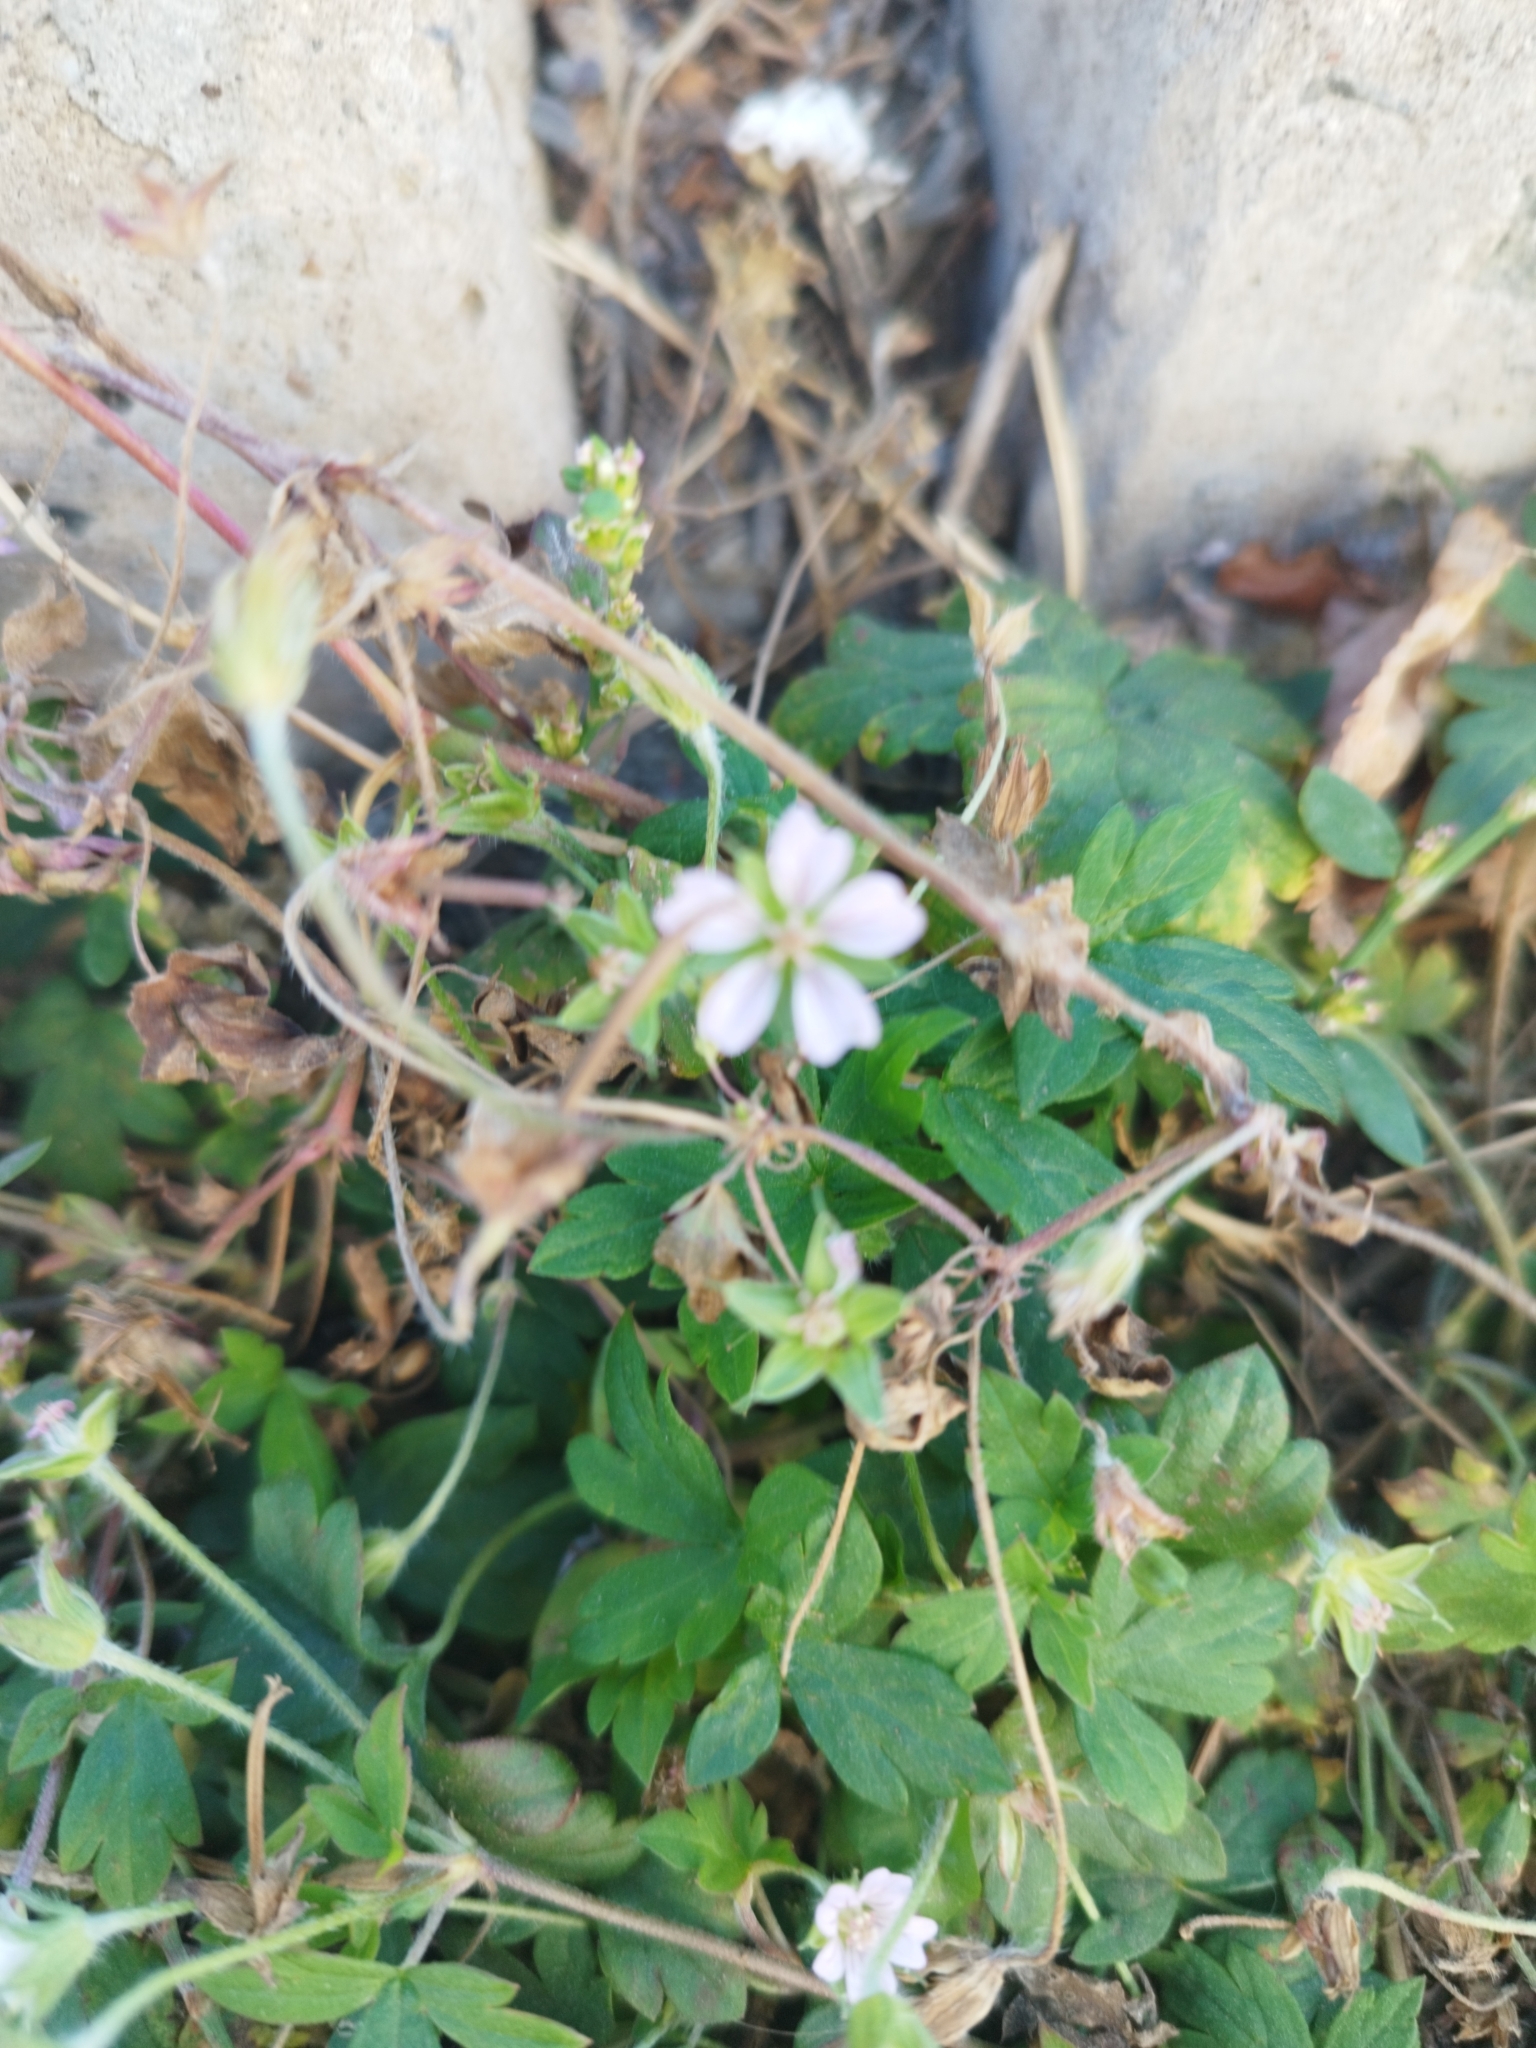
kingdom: Plantae
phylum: Tracheophyta
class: Magnoliopsida
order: Geraniales
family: Geraniaceae
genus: Geranium
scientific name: Geranium sibiricum
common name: Siberian crane's-bill
